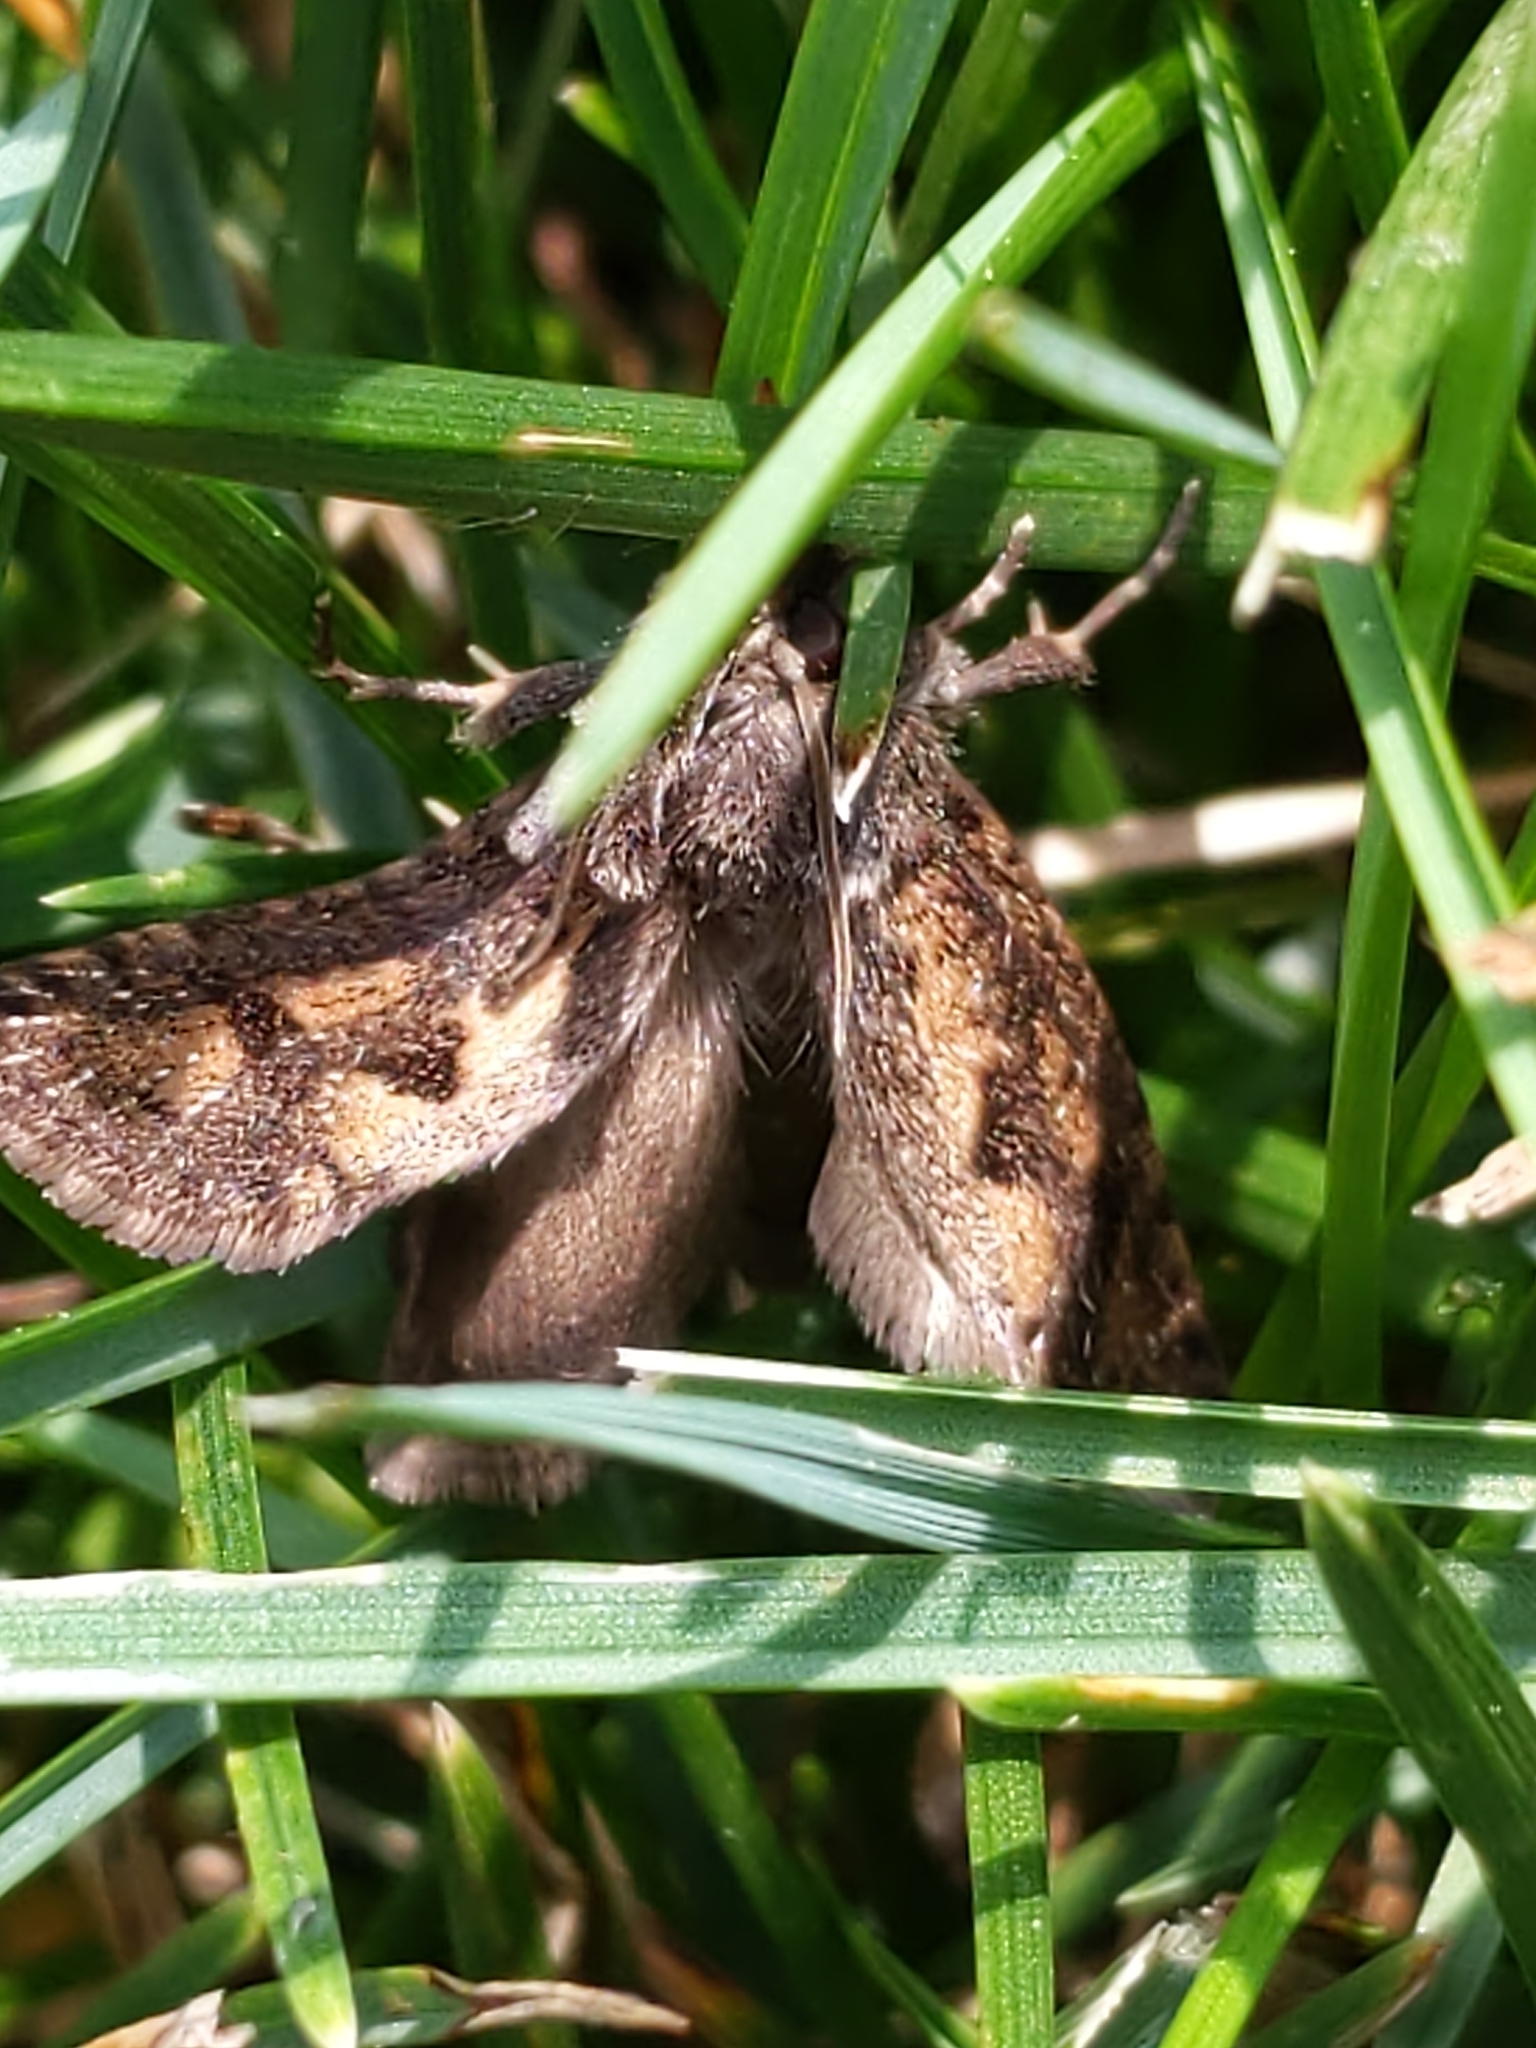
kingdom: Animalia
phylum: Arthropoda
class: Insecta
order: Lepidoptera
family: Tineidae
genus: Acrolophus
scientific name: Acrolophus popeanella
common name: Clemens' grass tubeworm moth
